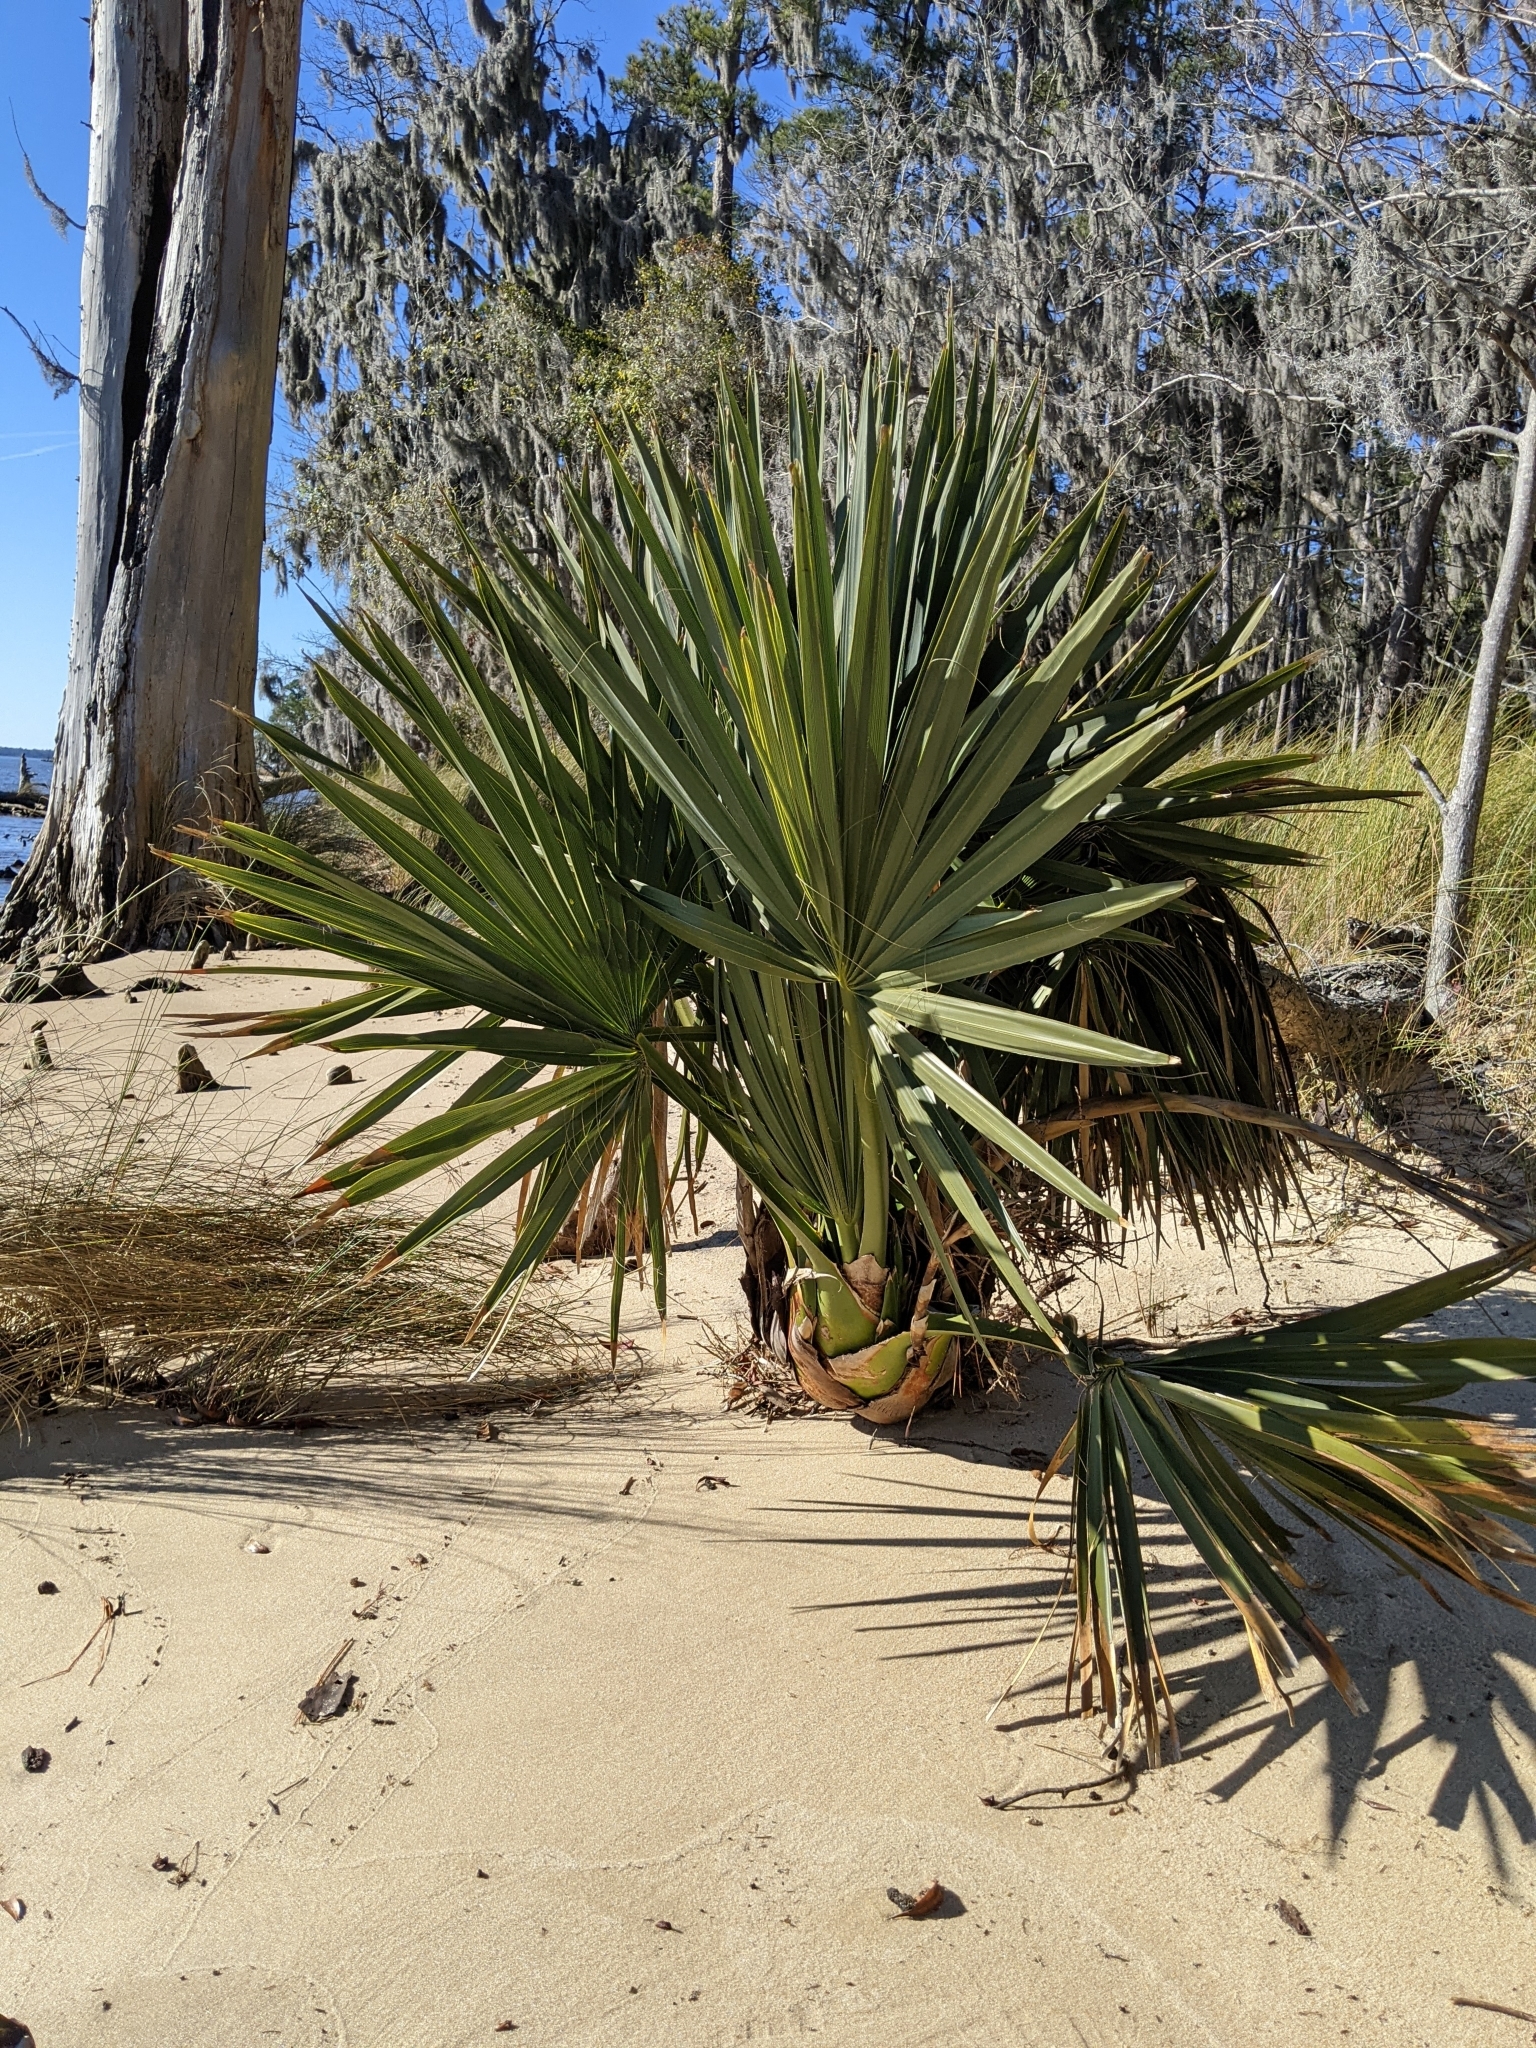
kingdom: Plantae
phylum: Tracheophyta
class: Liliopsida
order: Arecales
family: Arecaceae
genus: Sabal
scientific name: Sabal minor
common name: Dwarf palmetto
